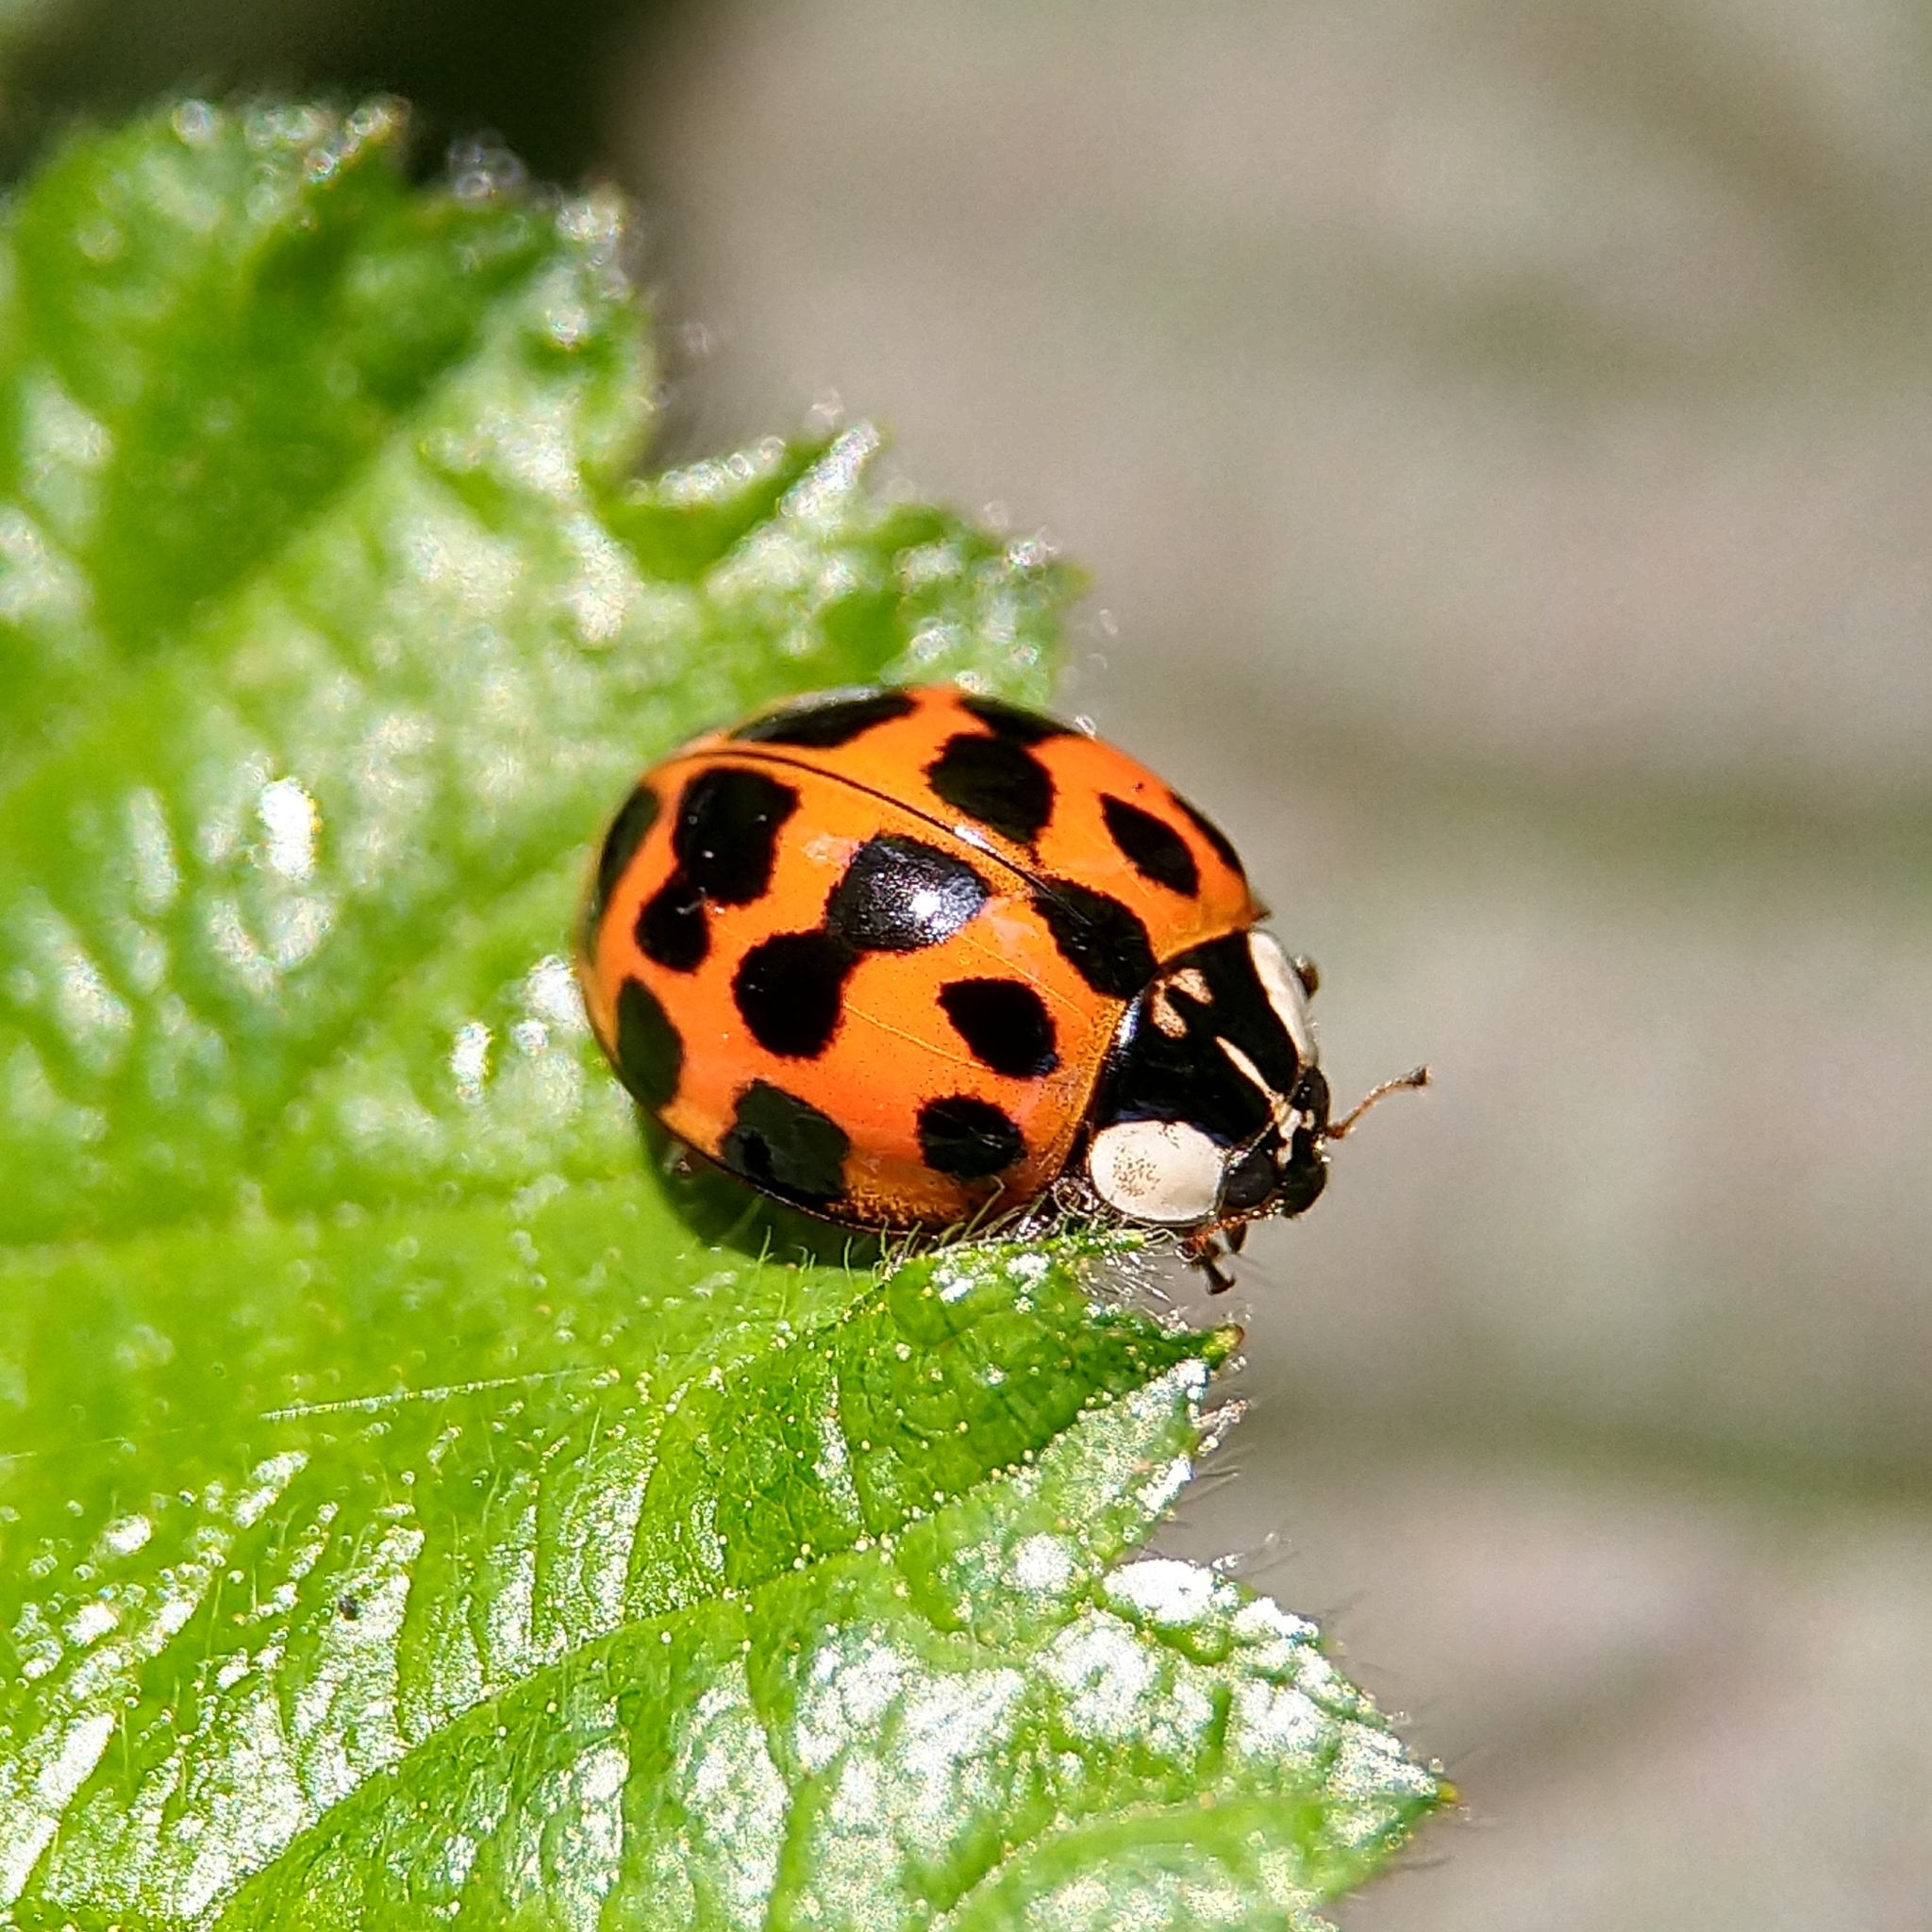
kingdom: Animalia
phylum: Arthropoda
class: Insecta
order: Coleoptera
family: Coccinellidae
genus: Harmonia
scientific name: Harmonia axyridis
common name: Harlequin ladybird
